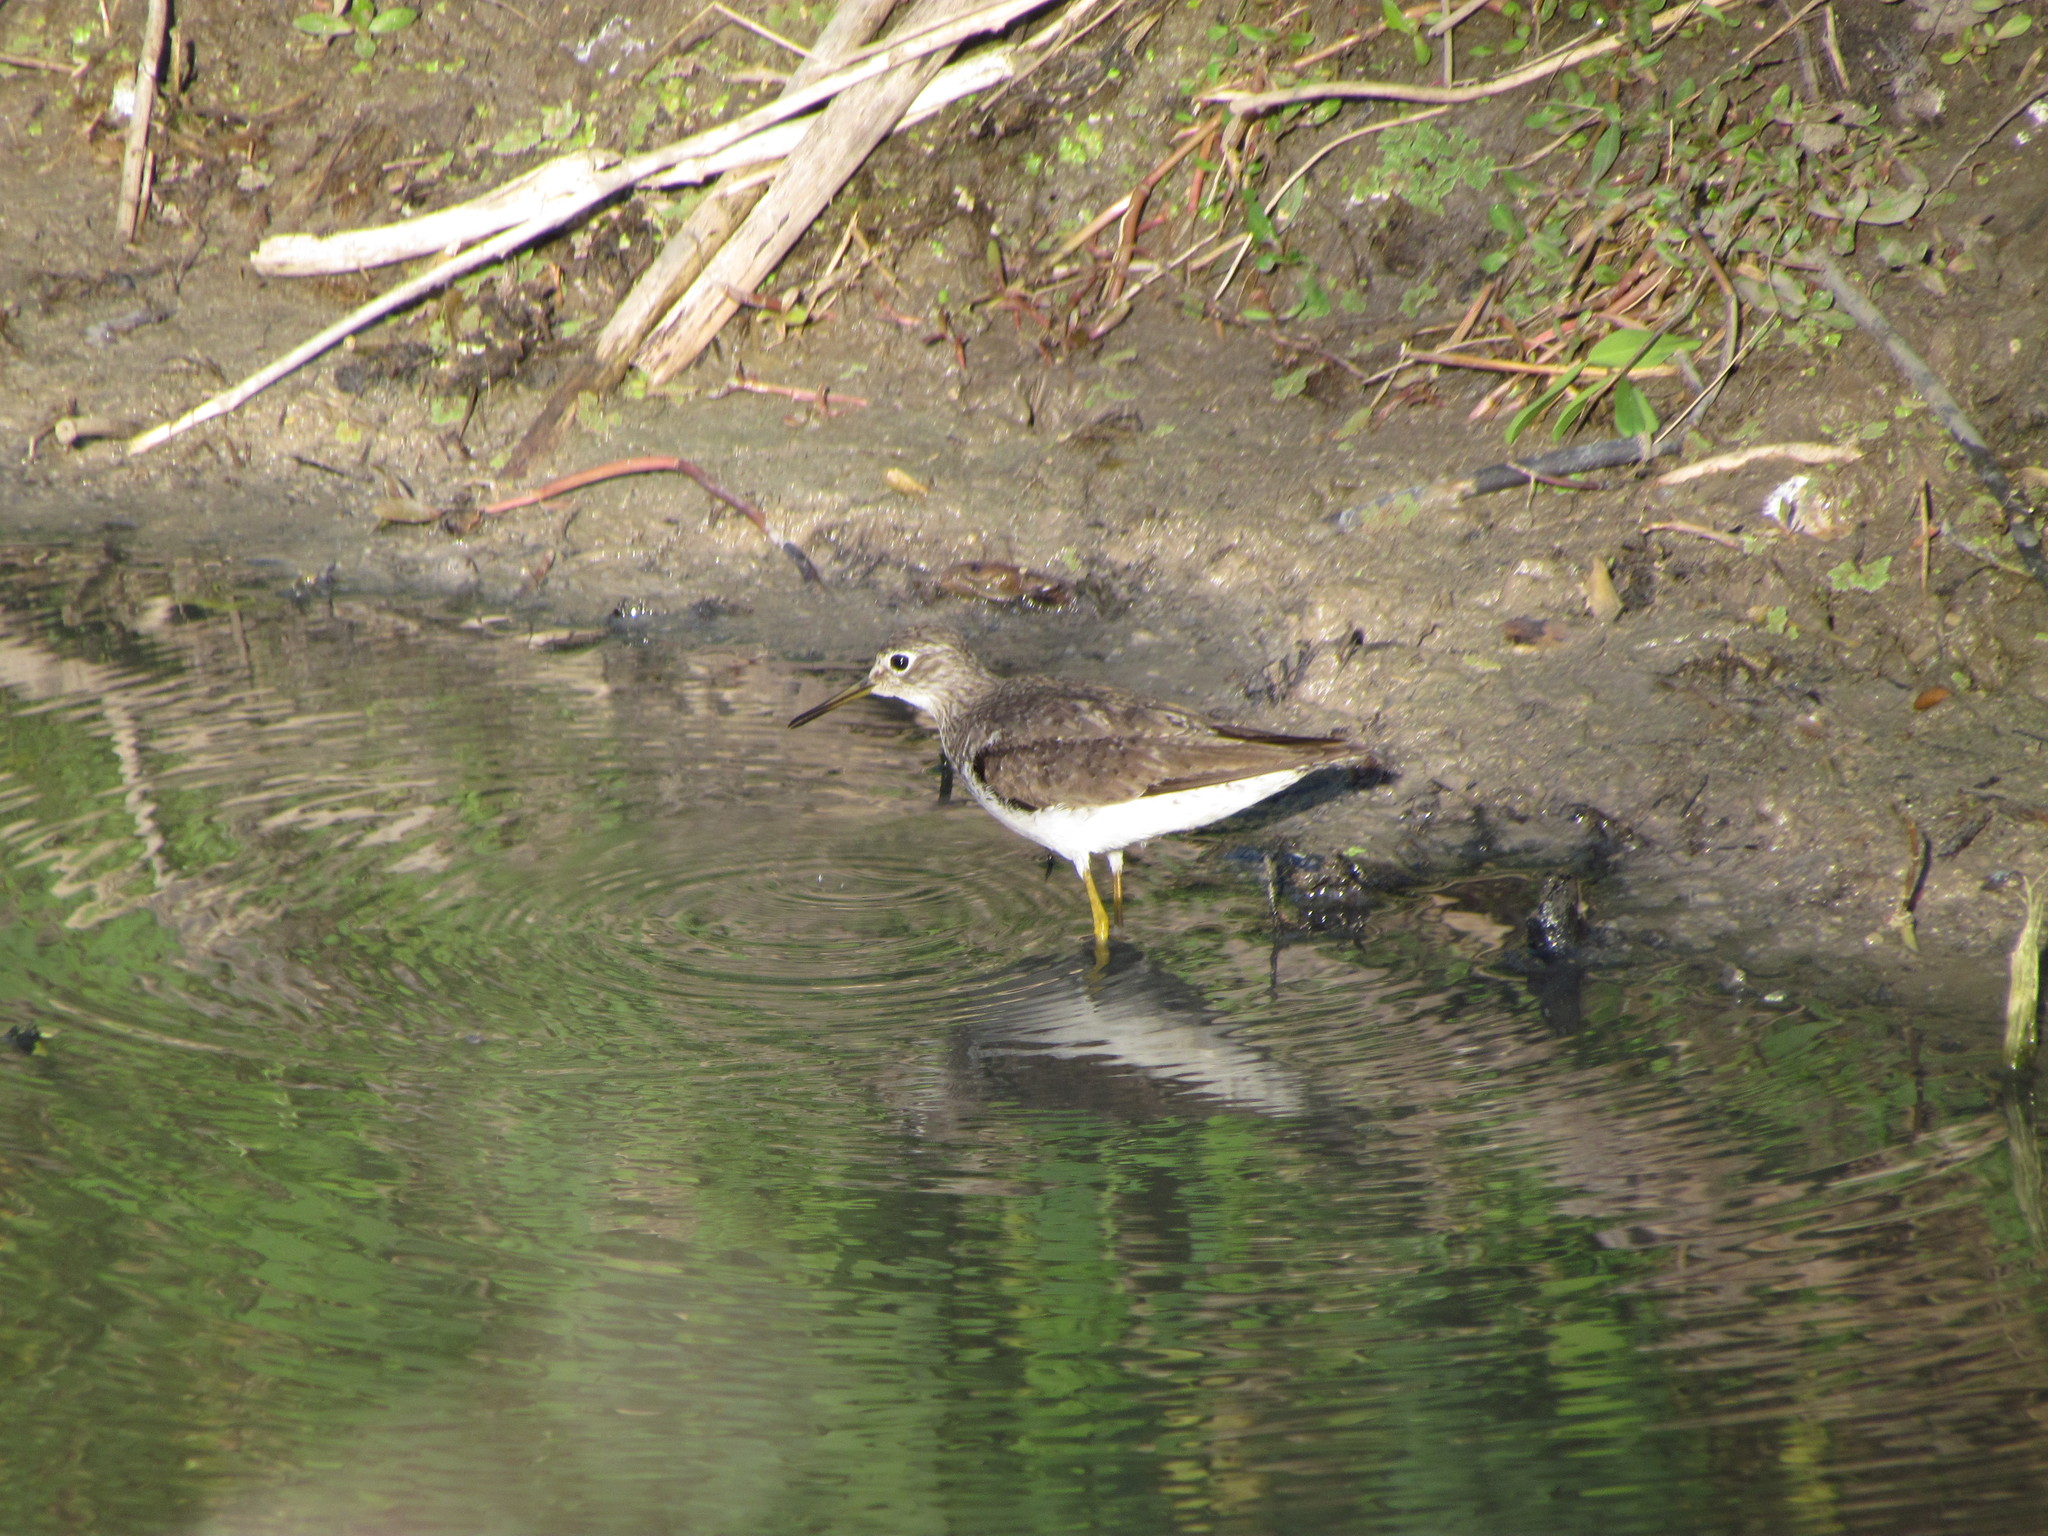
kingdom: Animalia
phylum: Chordata
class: Aves
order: Charadriiformes
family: Scolopacidae
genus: Tringa
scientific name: Tringa solitaria
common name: Solitary sandpiper
